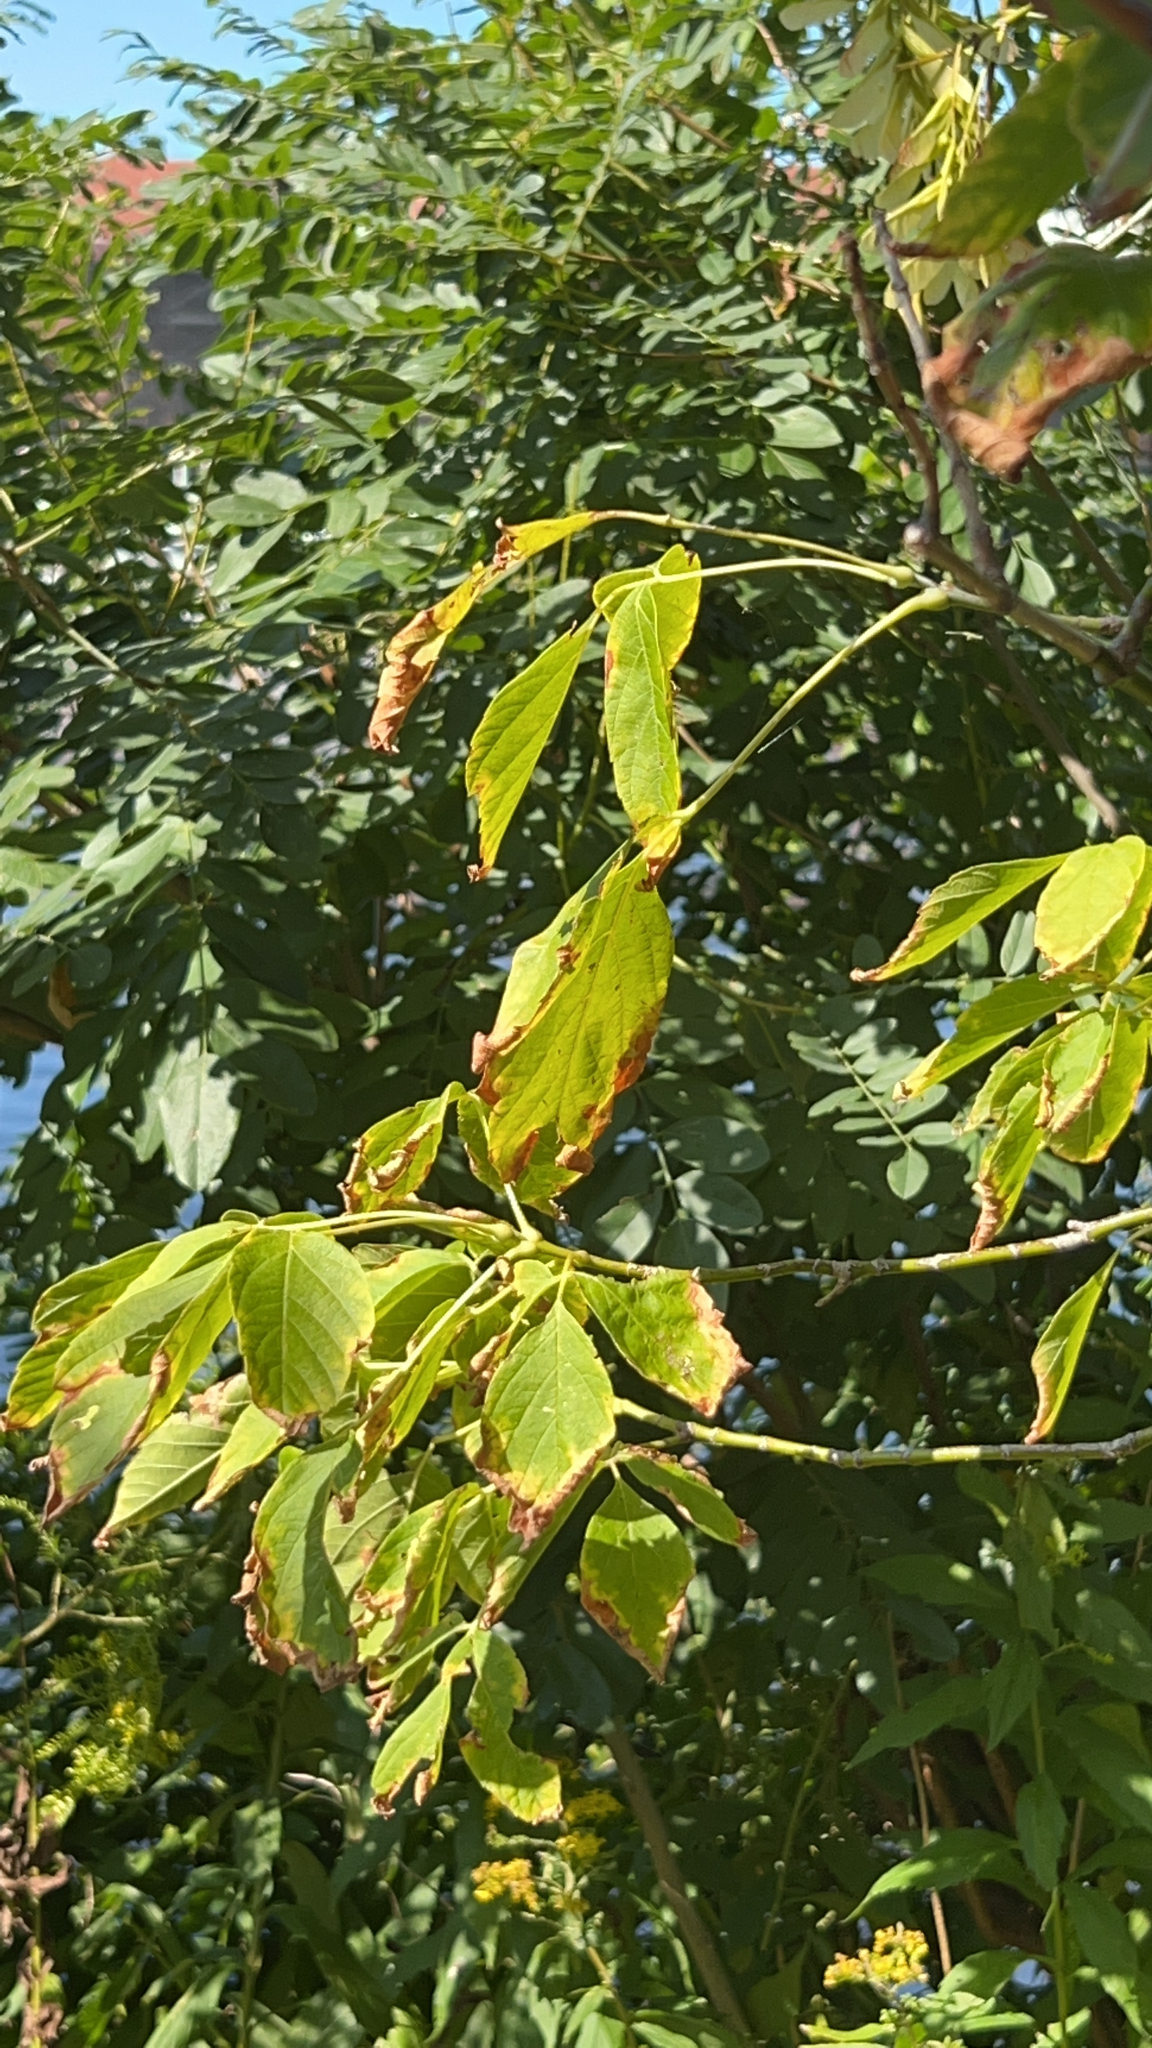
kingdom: Plantae
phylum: Tracheophyta
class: Magnoliopsida
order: Sapindales
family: Sapindaceae
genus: Acer
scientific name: Acer negundo
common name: Ashleaf maple
